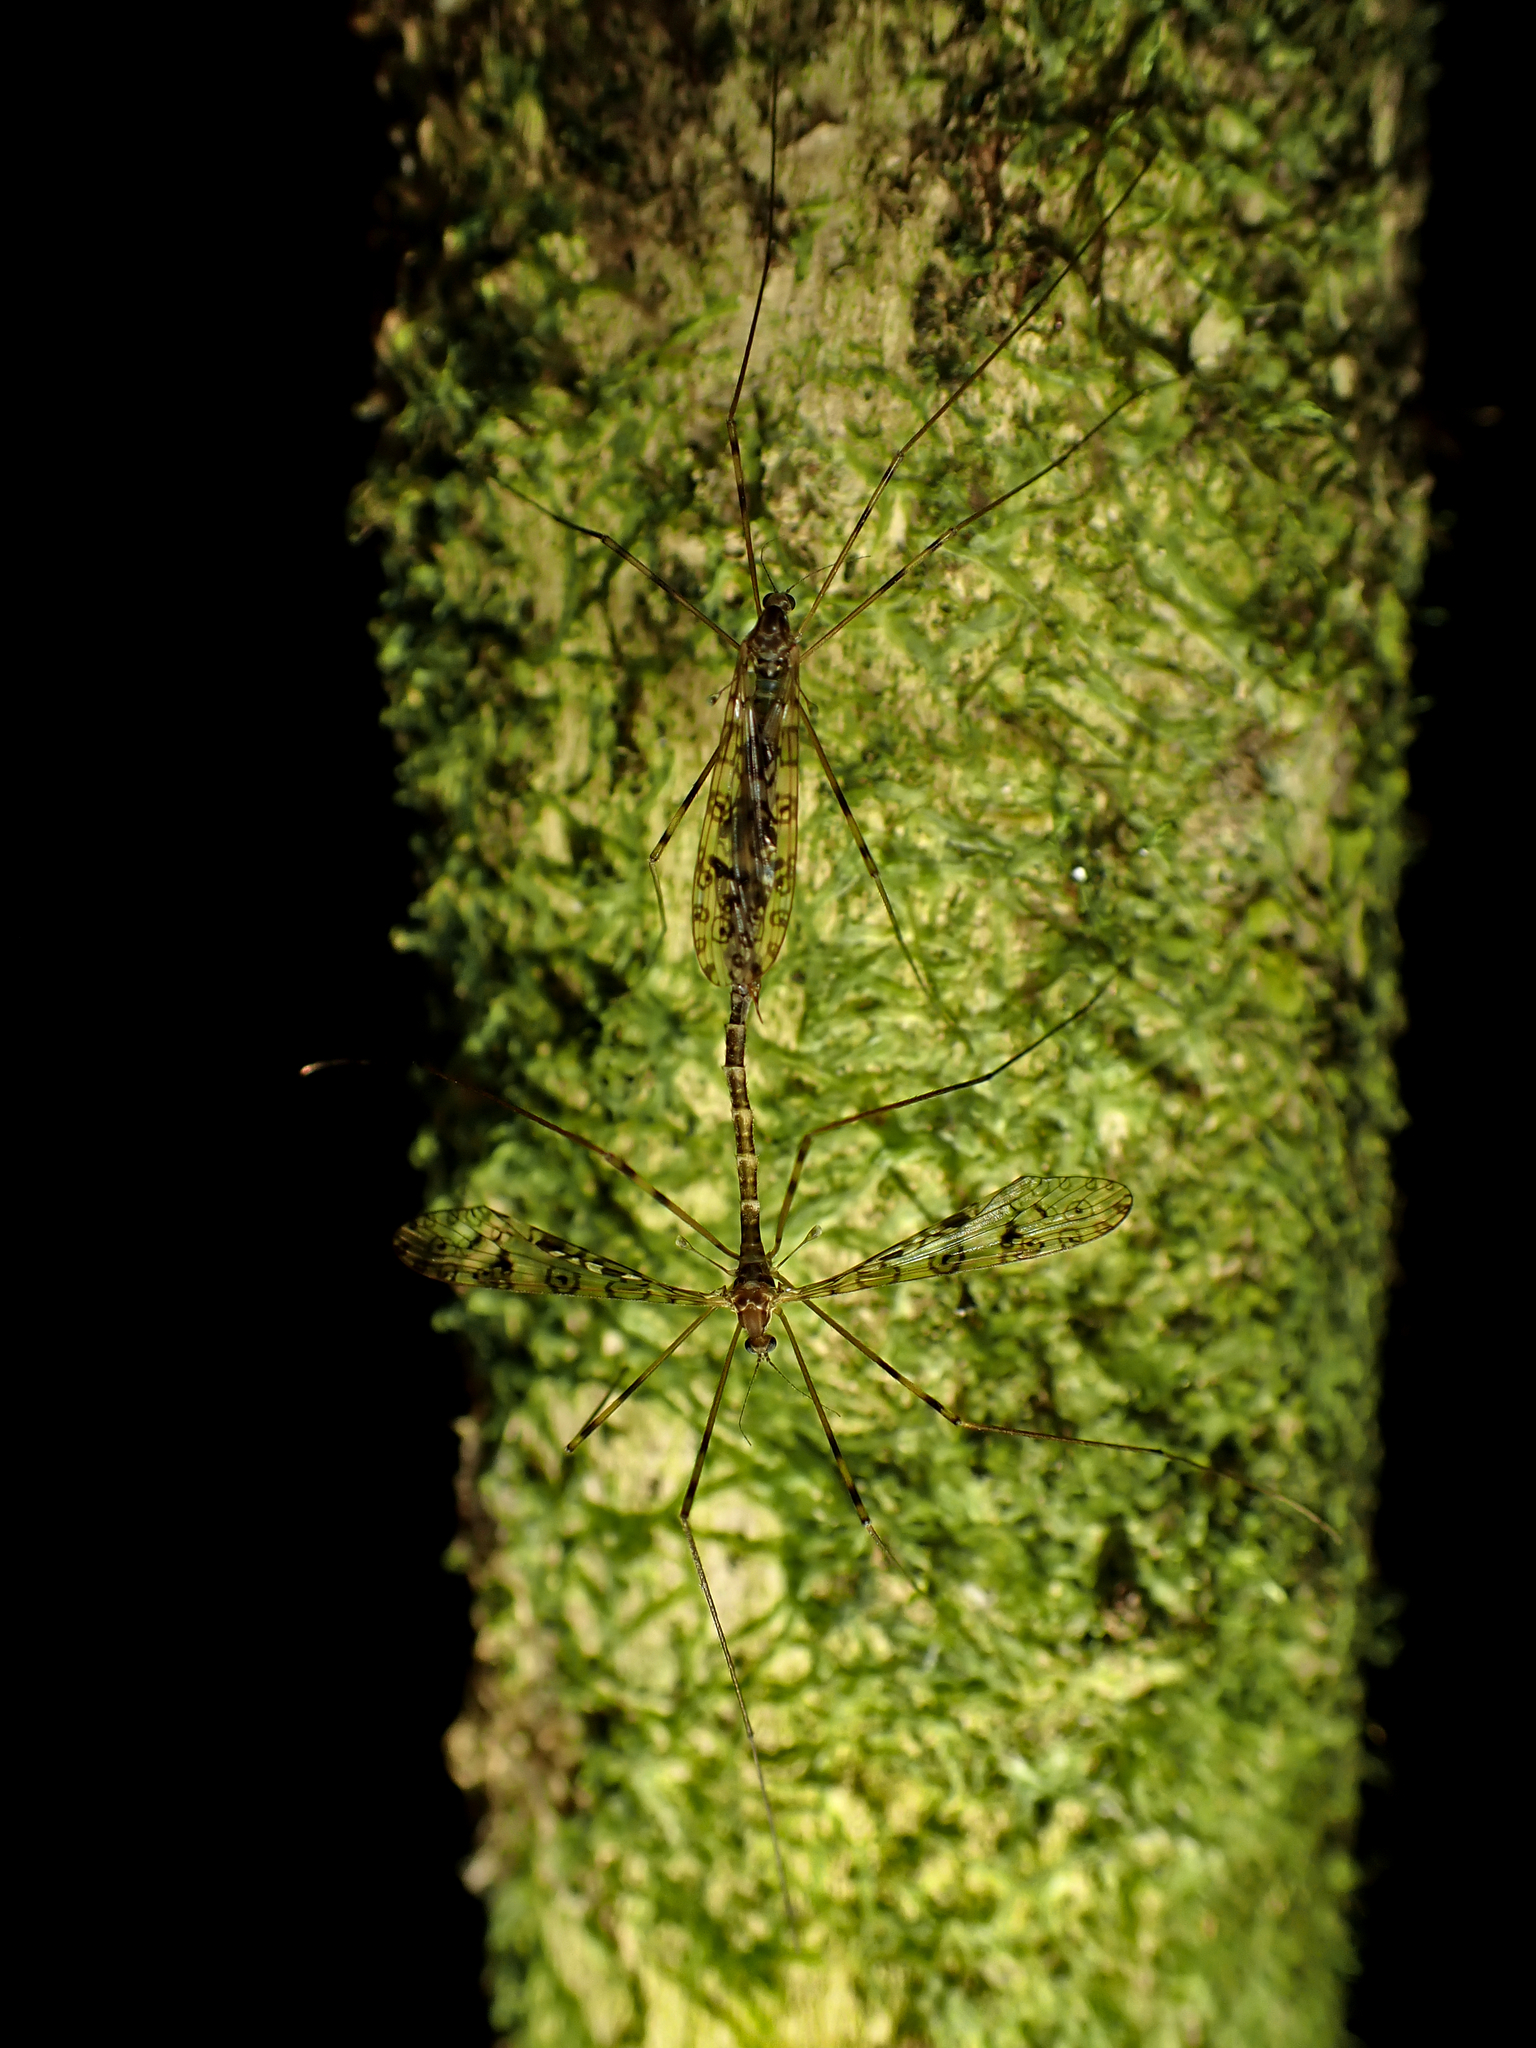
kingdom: Animalia
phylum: Arthropoda
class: Insecta
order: Diptera
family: Limoniidae
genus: Austrolimnophila
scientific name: Austrolimnophila argus
